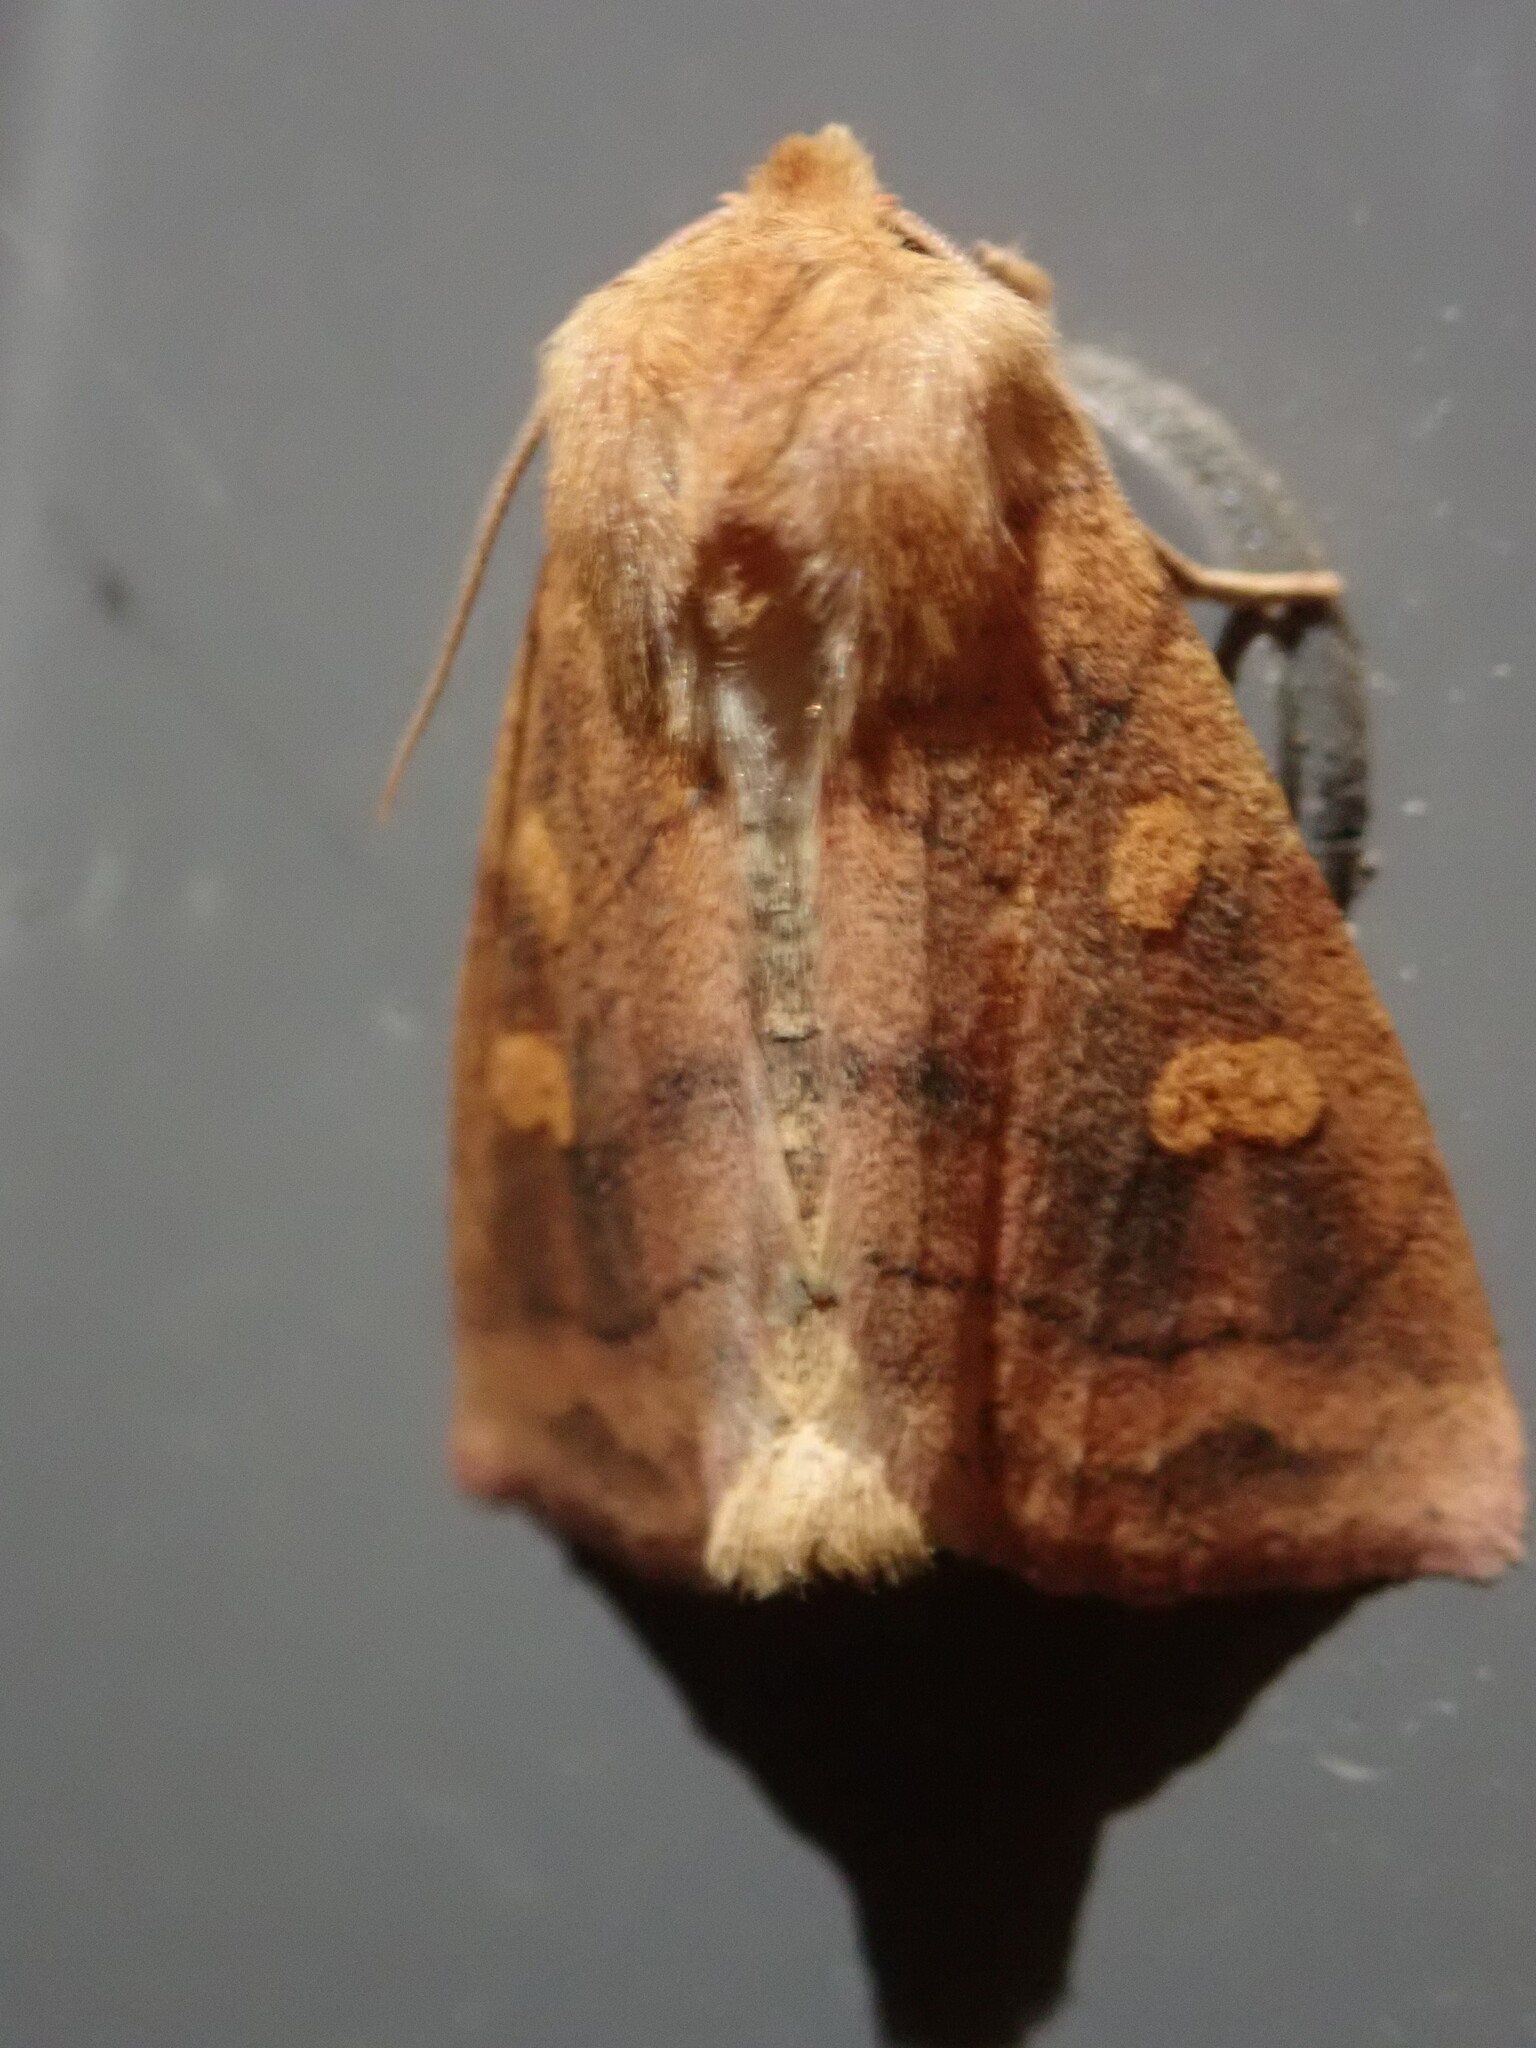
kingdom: Animalia
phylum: Arthropoda
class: Insecta
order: Lepidoptera
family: Noctuidae
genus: Enargia
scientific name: Enargia decolor
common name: Aspen twoleaf tier moth
